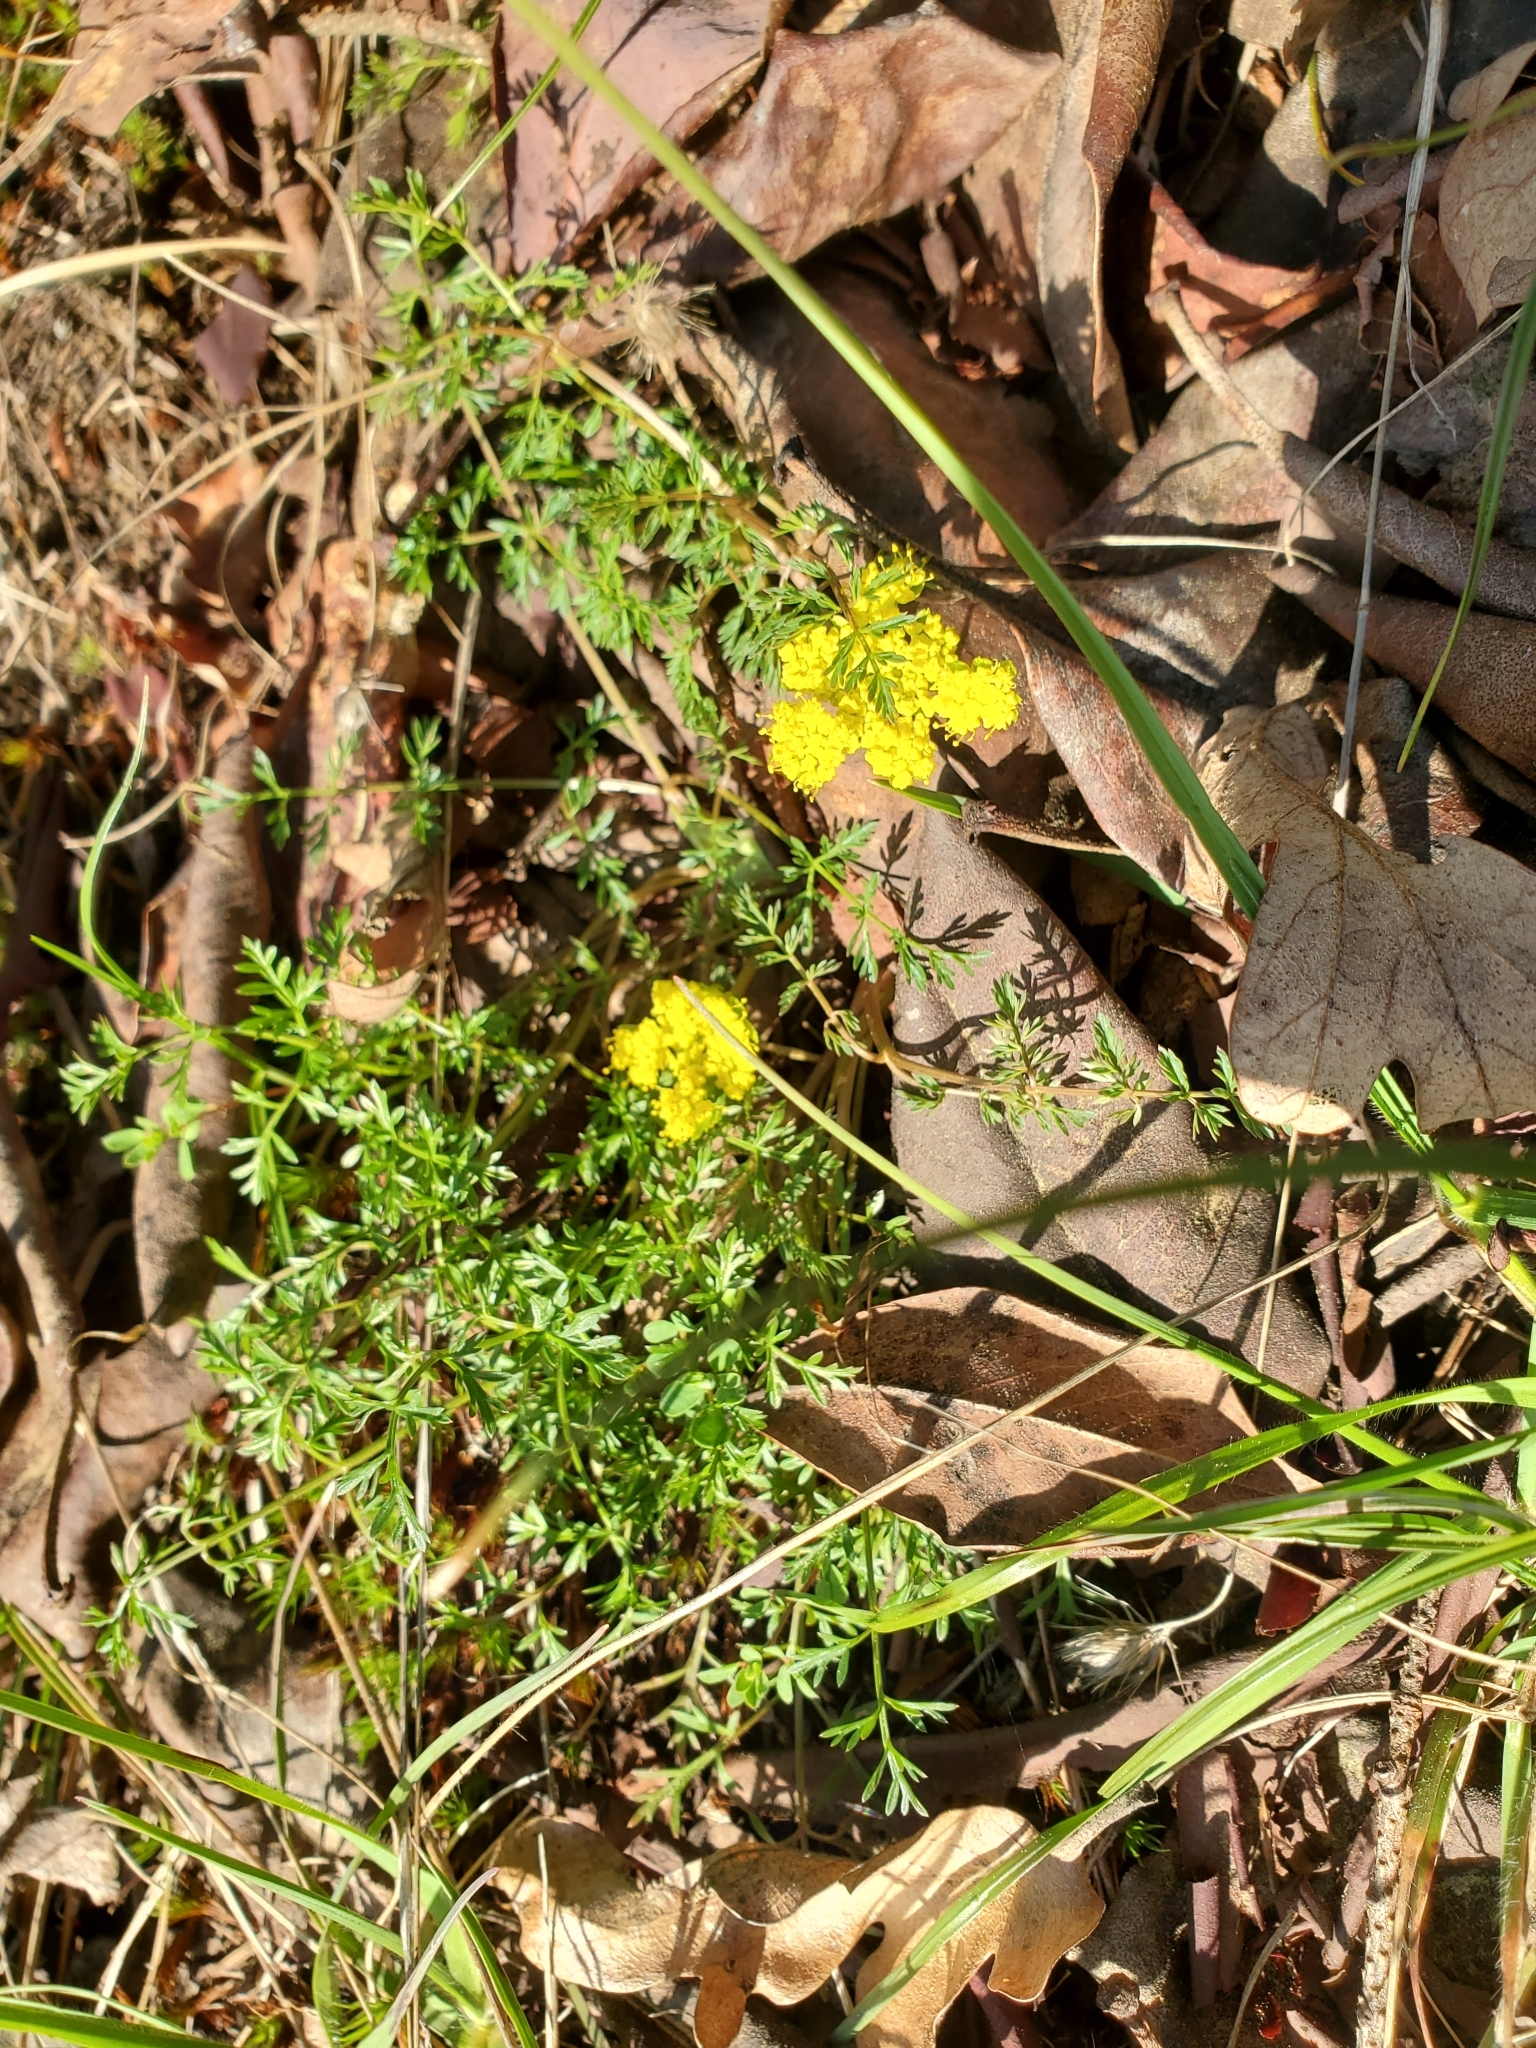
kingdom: Plantae
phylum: Tracheophyta
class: Magnoliopsida
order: Apiales
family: Apiaceae
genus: Lomatium
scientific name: Lomatium utriculatum
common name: Fine-leaf desert-parsley
